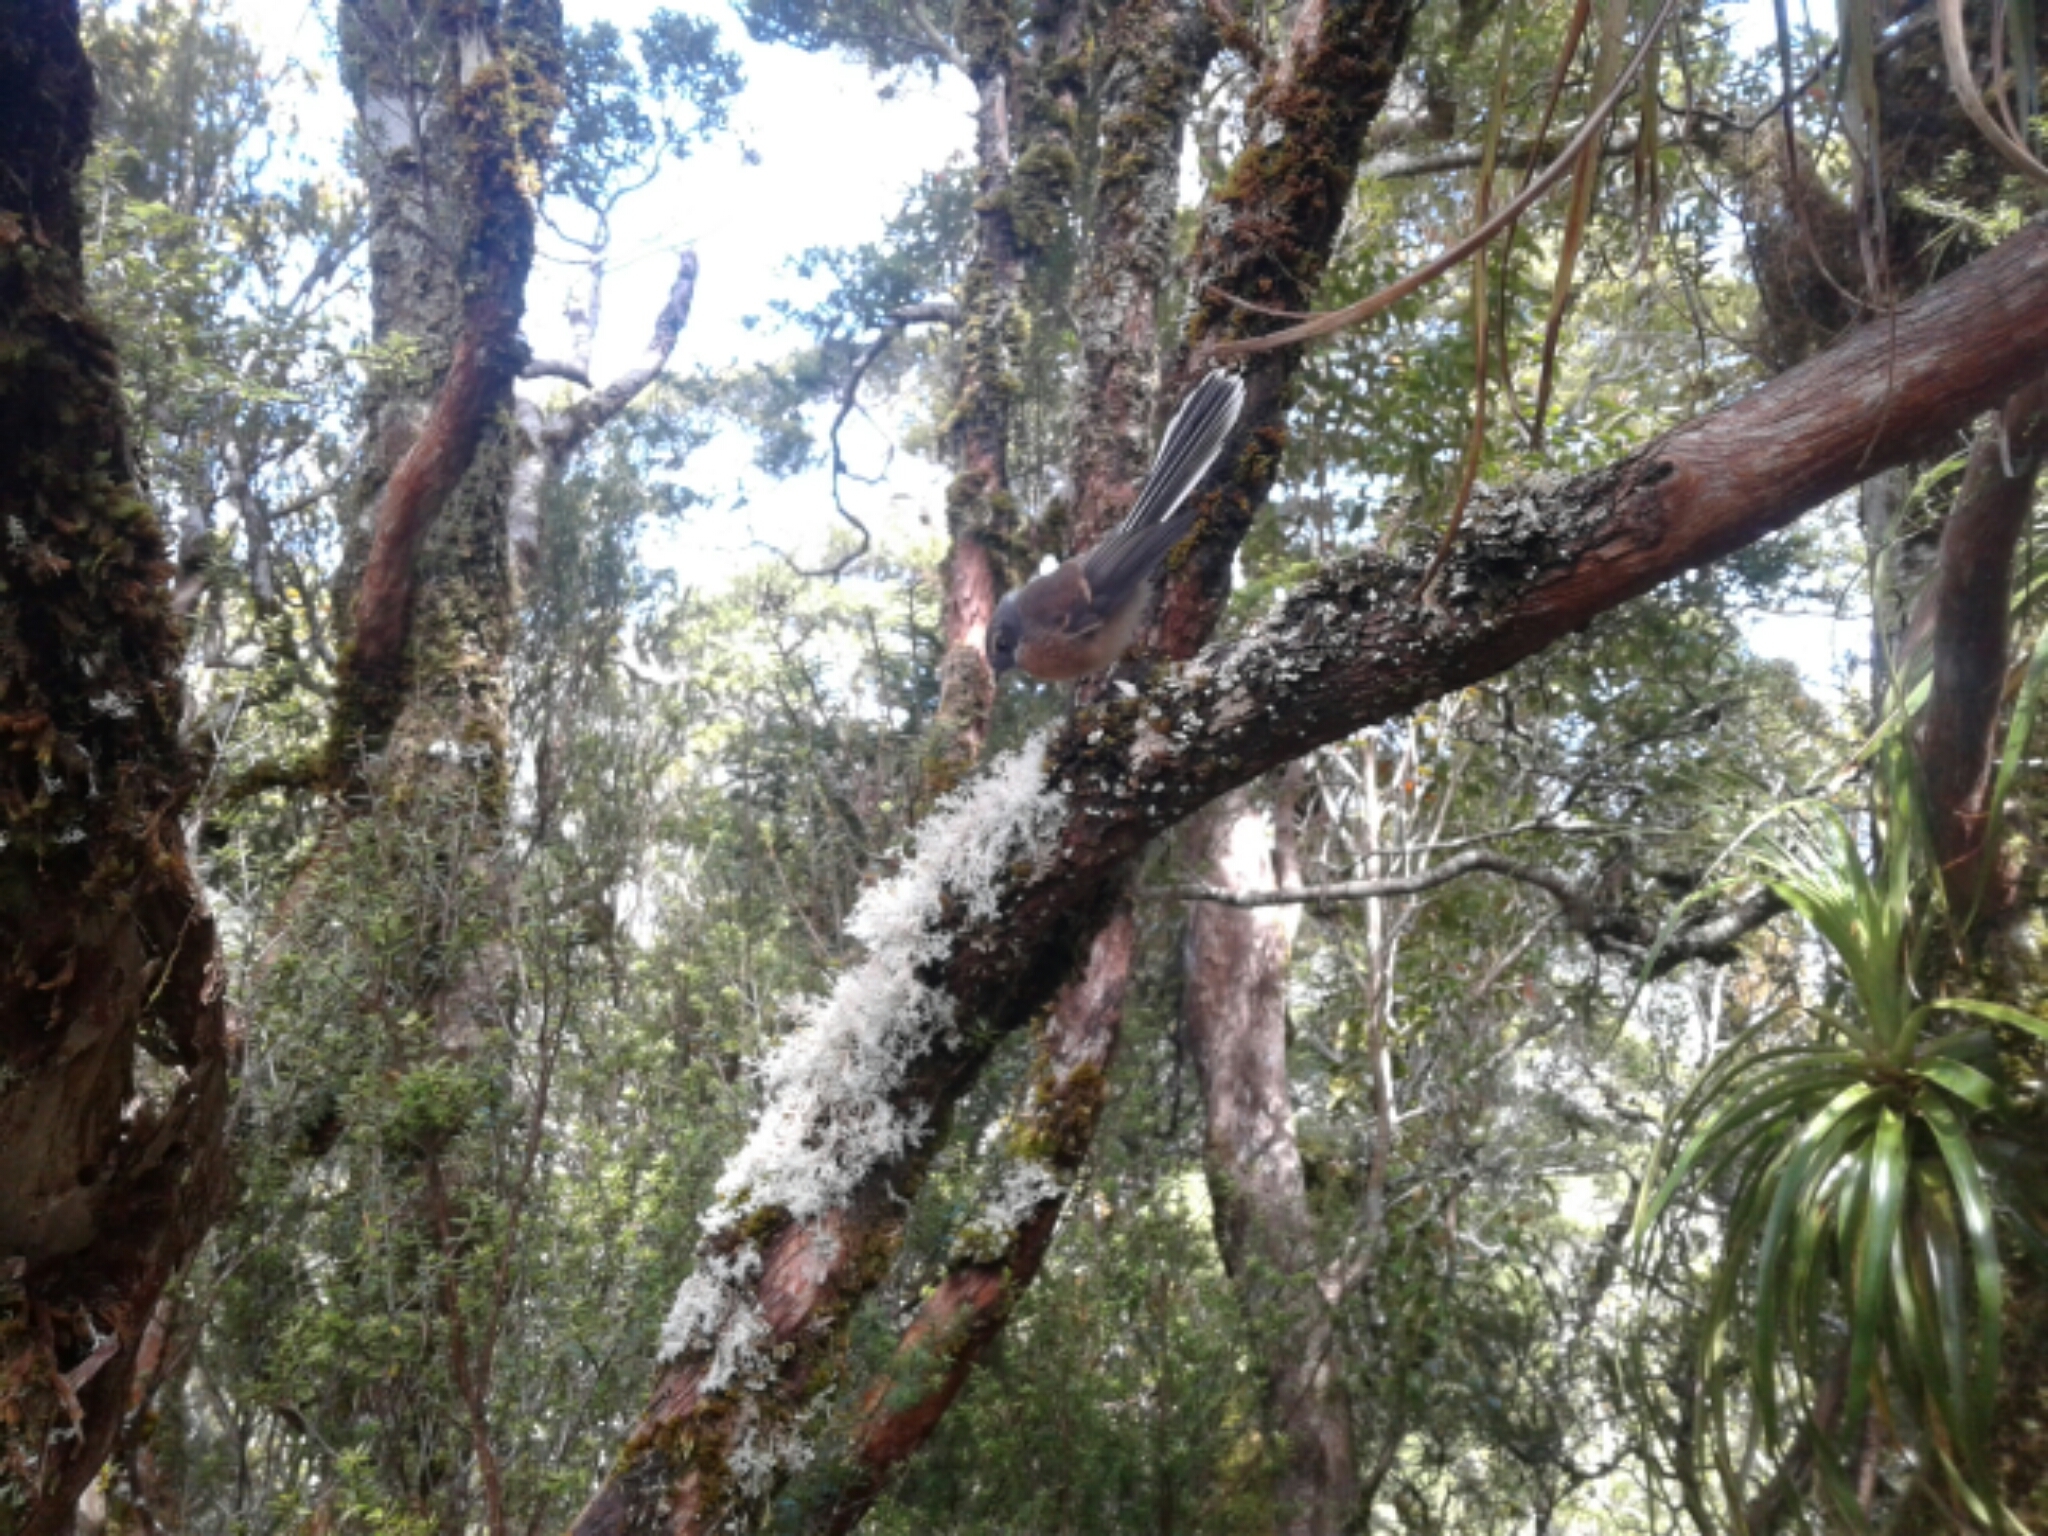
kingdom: Animalia
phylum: Chordata
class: Aves
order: Passeriformes
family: Rhipiduridae
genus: Rhipidura
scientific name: Rhipidura fuliginosa
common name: New zealand fantail
